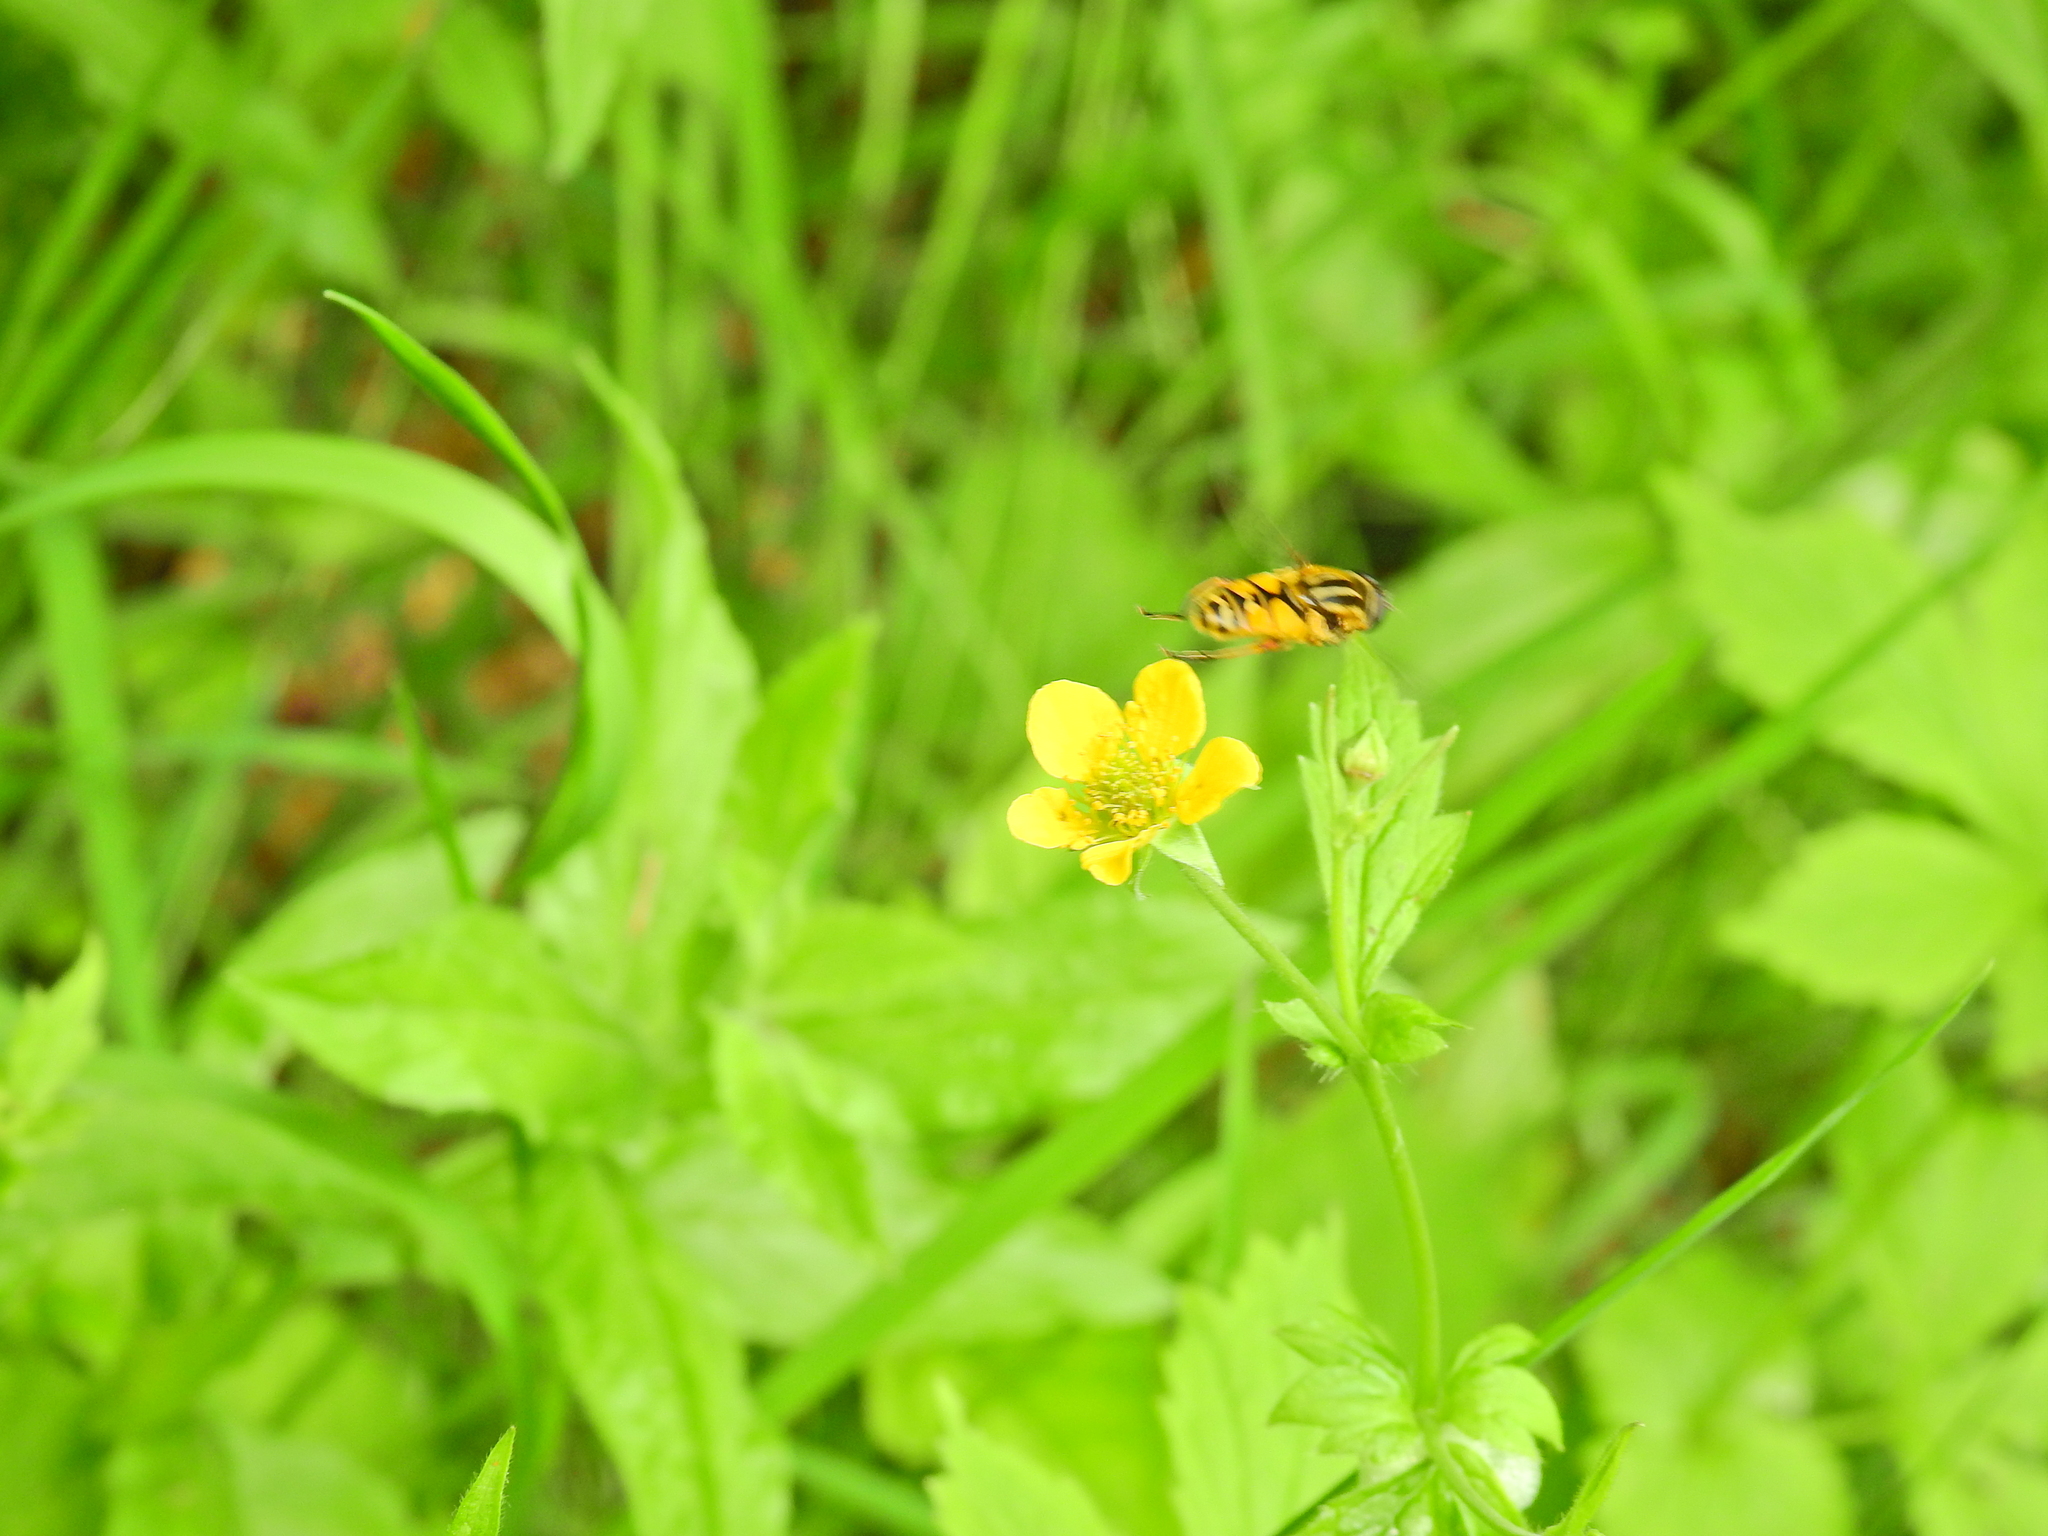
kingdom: Animalia
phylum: Arthropoda
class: Insecta
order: Diptera
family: Syrphidae
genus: Helophilus
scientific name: Helophilus pendulus
